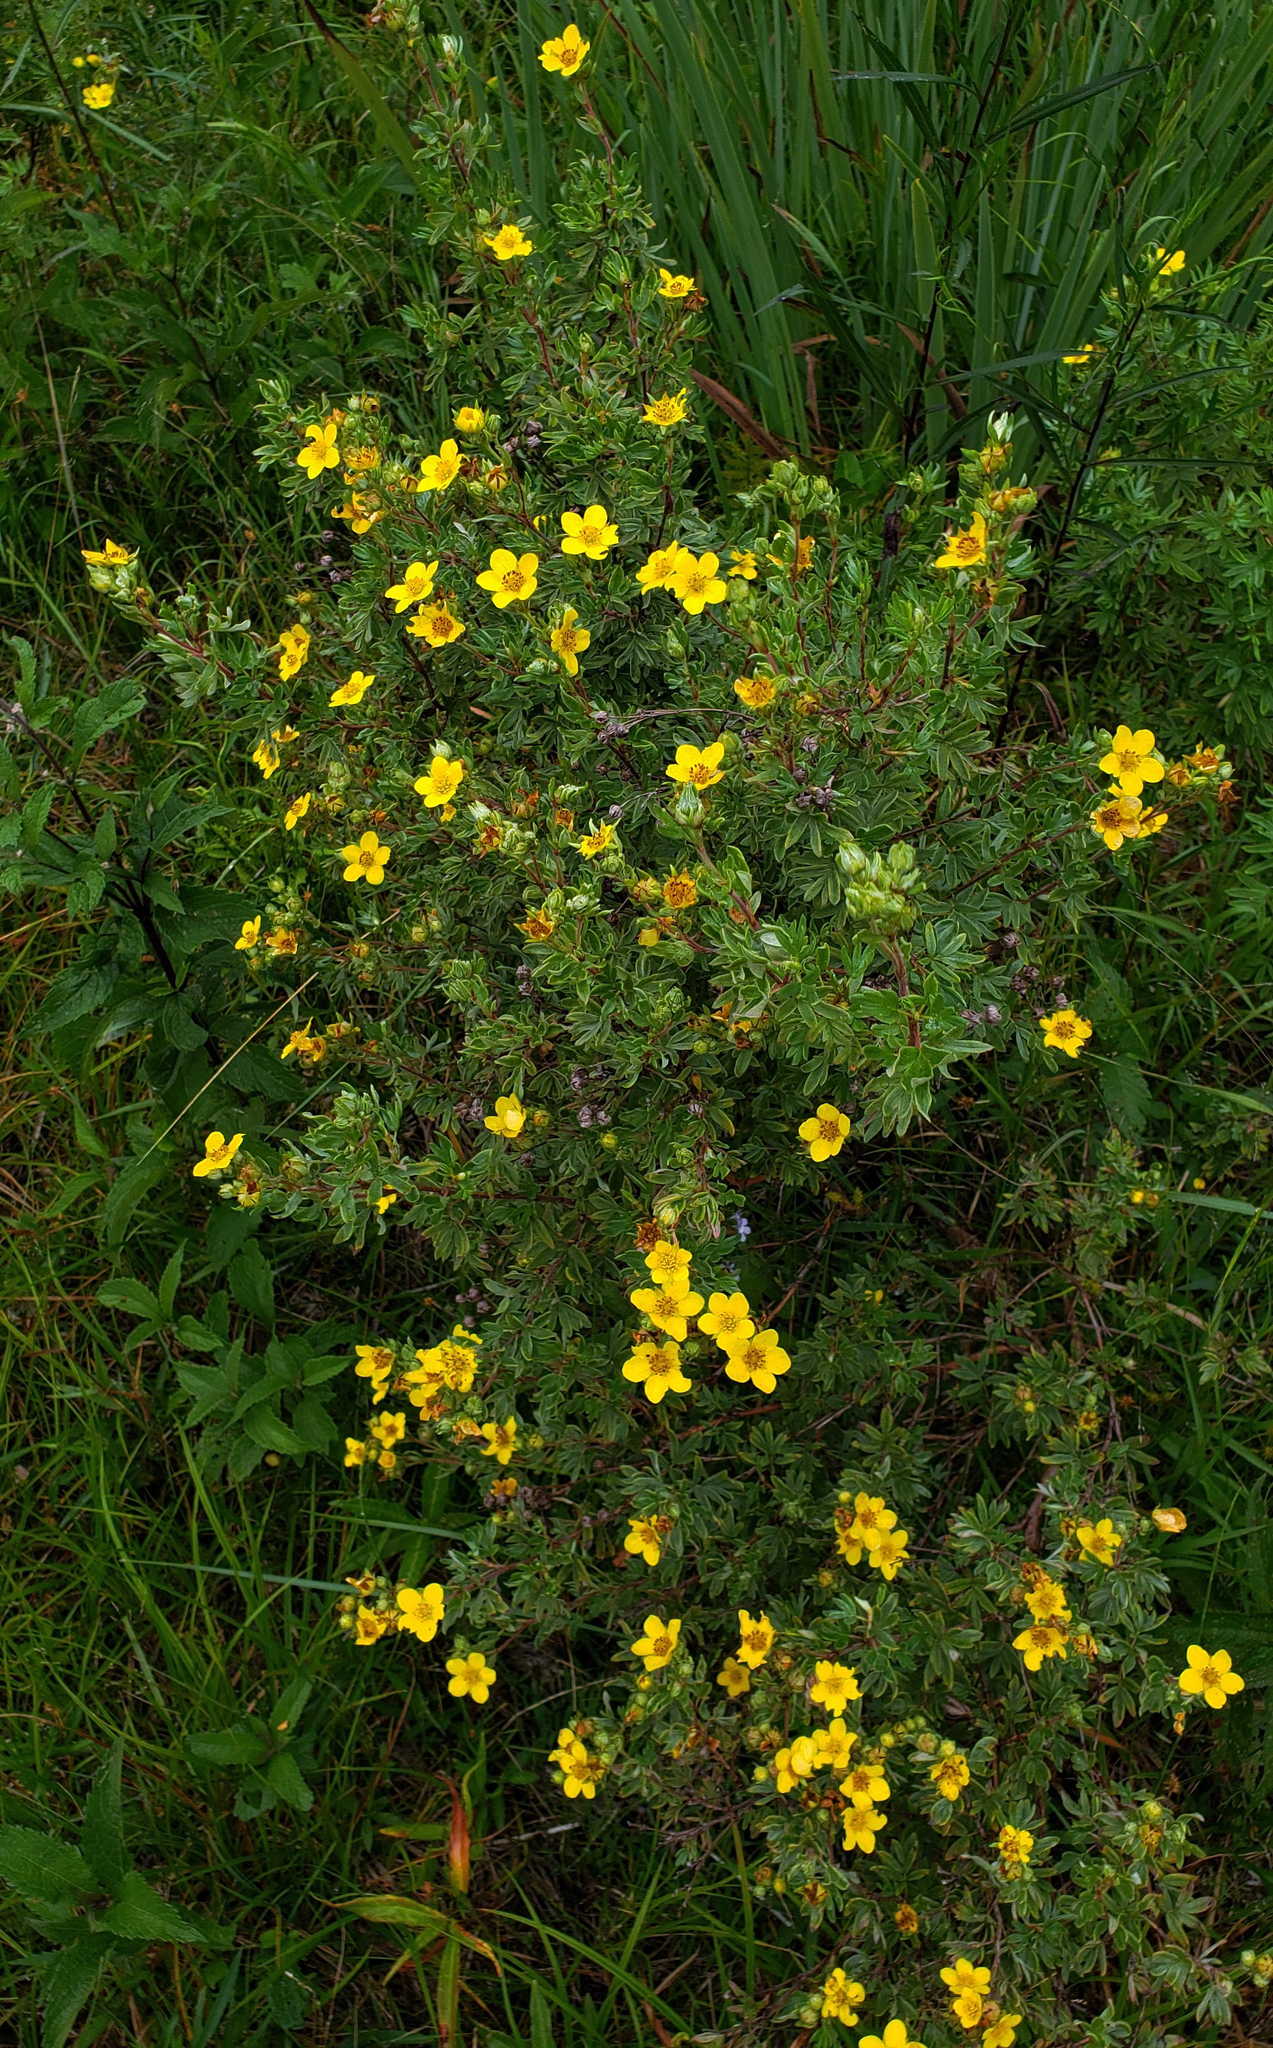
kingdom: Plantae
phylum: Tracheophyta
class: Magnoliopsida
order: Rosales
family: Rosaceae
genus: Dasiphora
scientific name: Dasiphora fruticosa
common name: Shrubby cinquefoil
